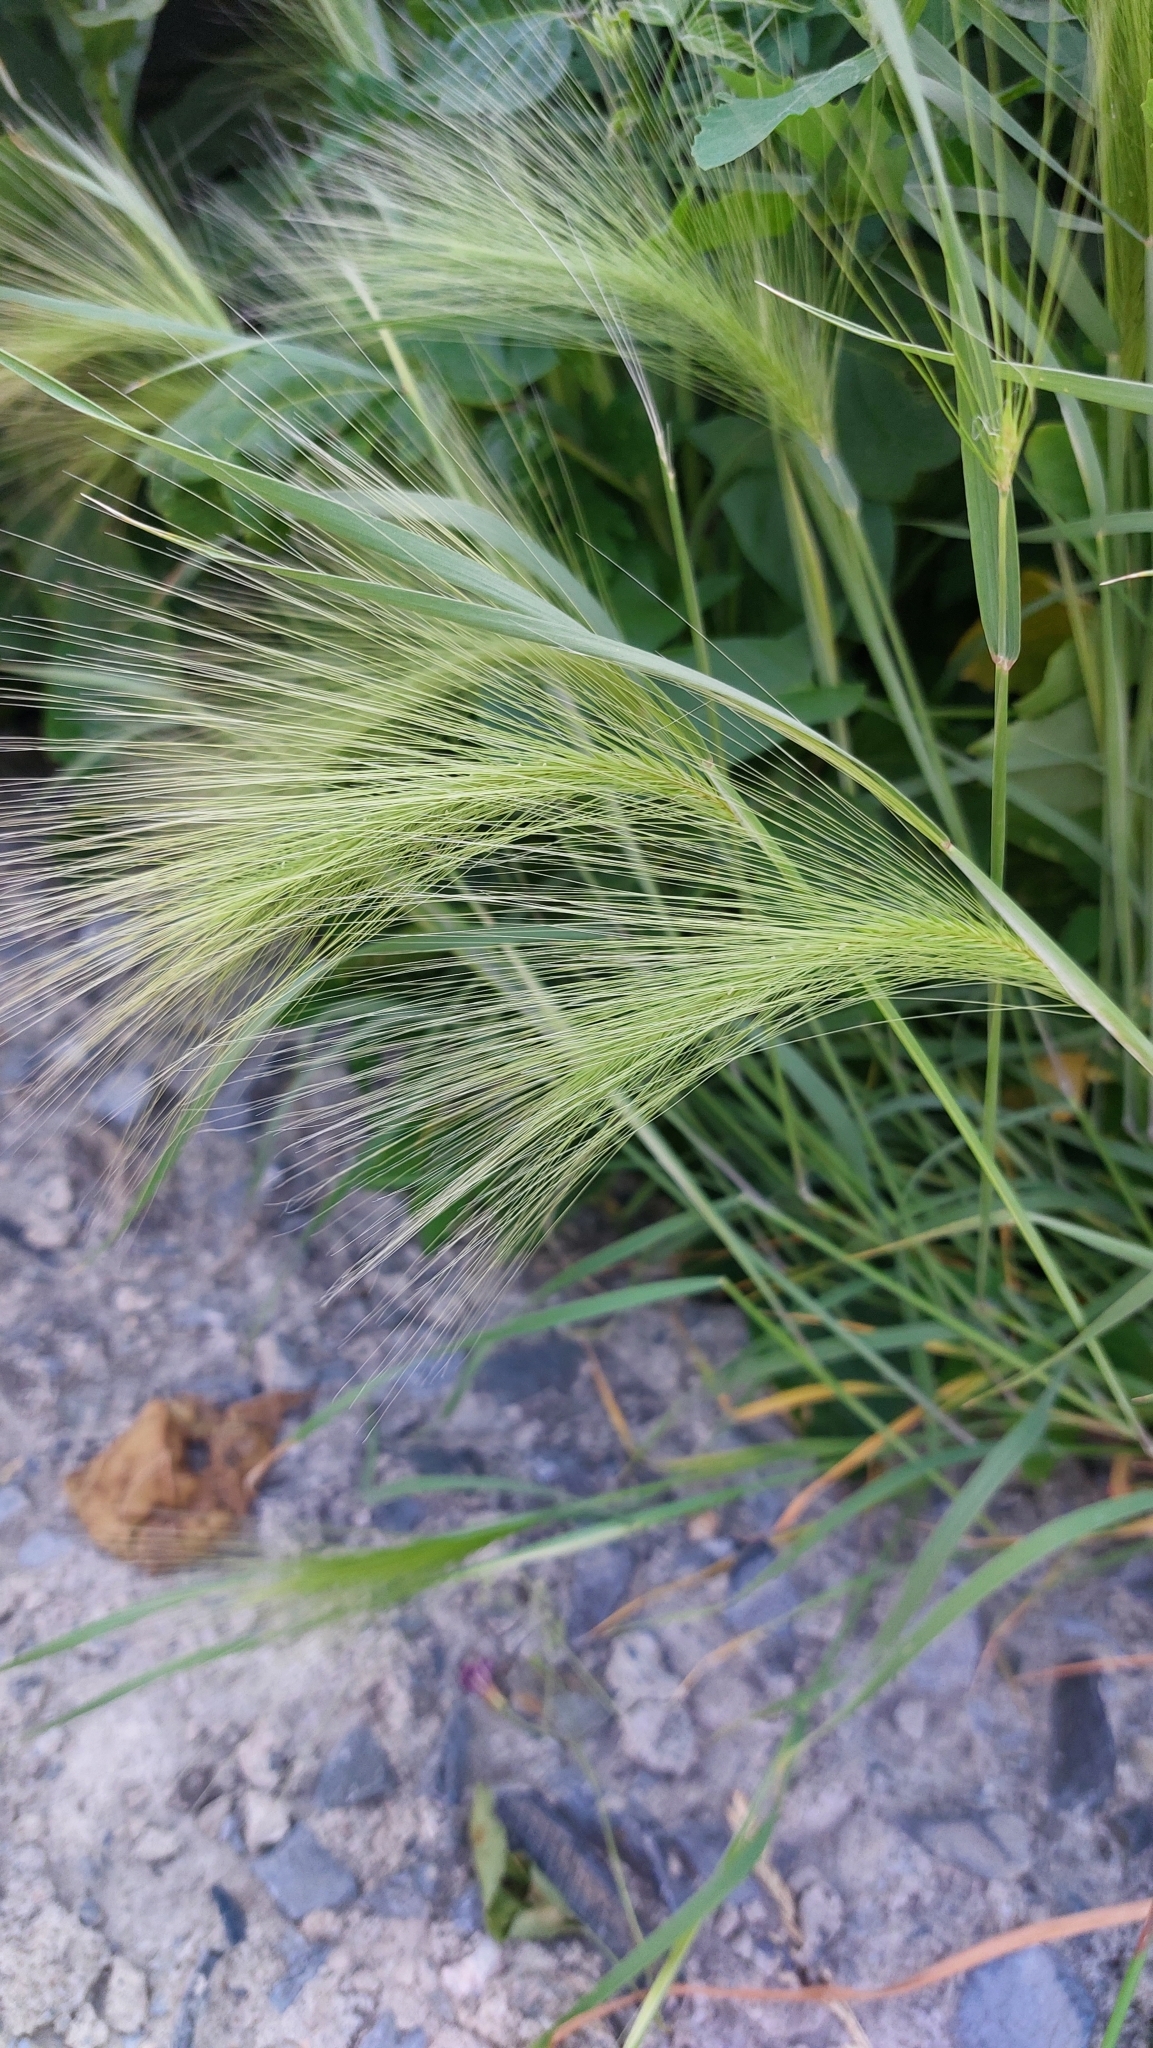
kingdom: Plantae
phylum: Tracheophyta
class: Liliopsida
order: Poales
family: Poaceae
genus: Hordeum
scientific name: Hordeum jubatum
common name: Foxtail barley
